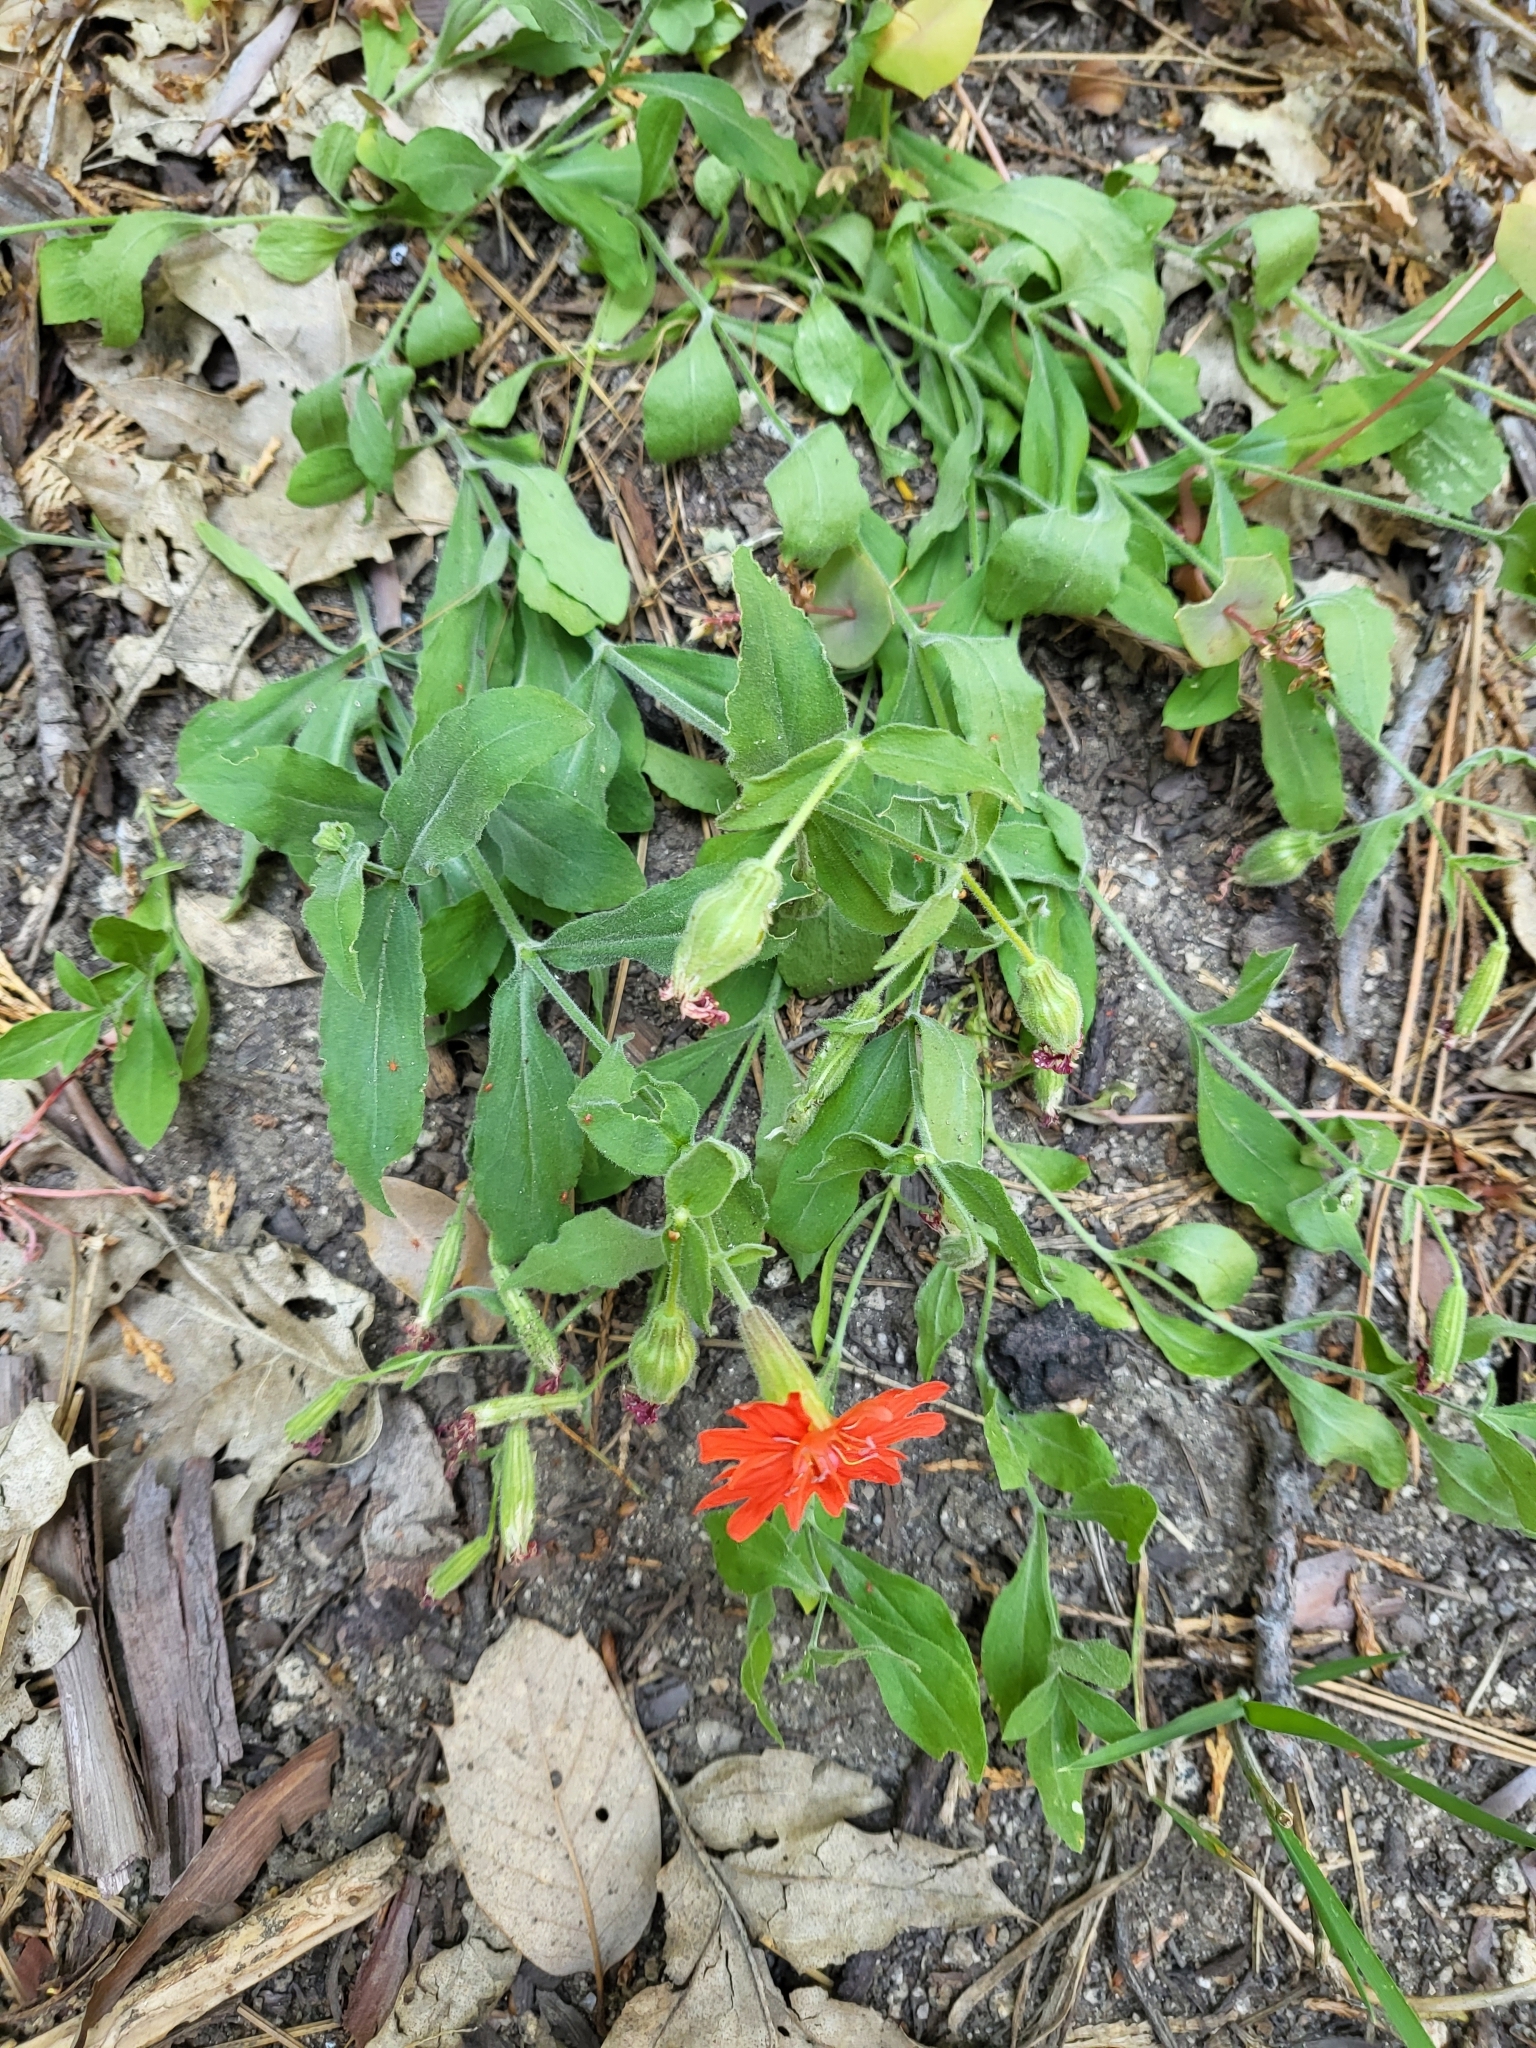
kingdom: Plantae
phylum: Tracheophyta
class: Magnoliopsida
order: Caryophyllales
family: Caryophyllaceae
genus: Silene
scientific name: Silene laciniata
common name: Indian-pink
